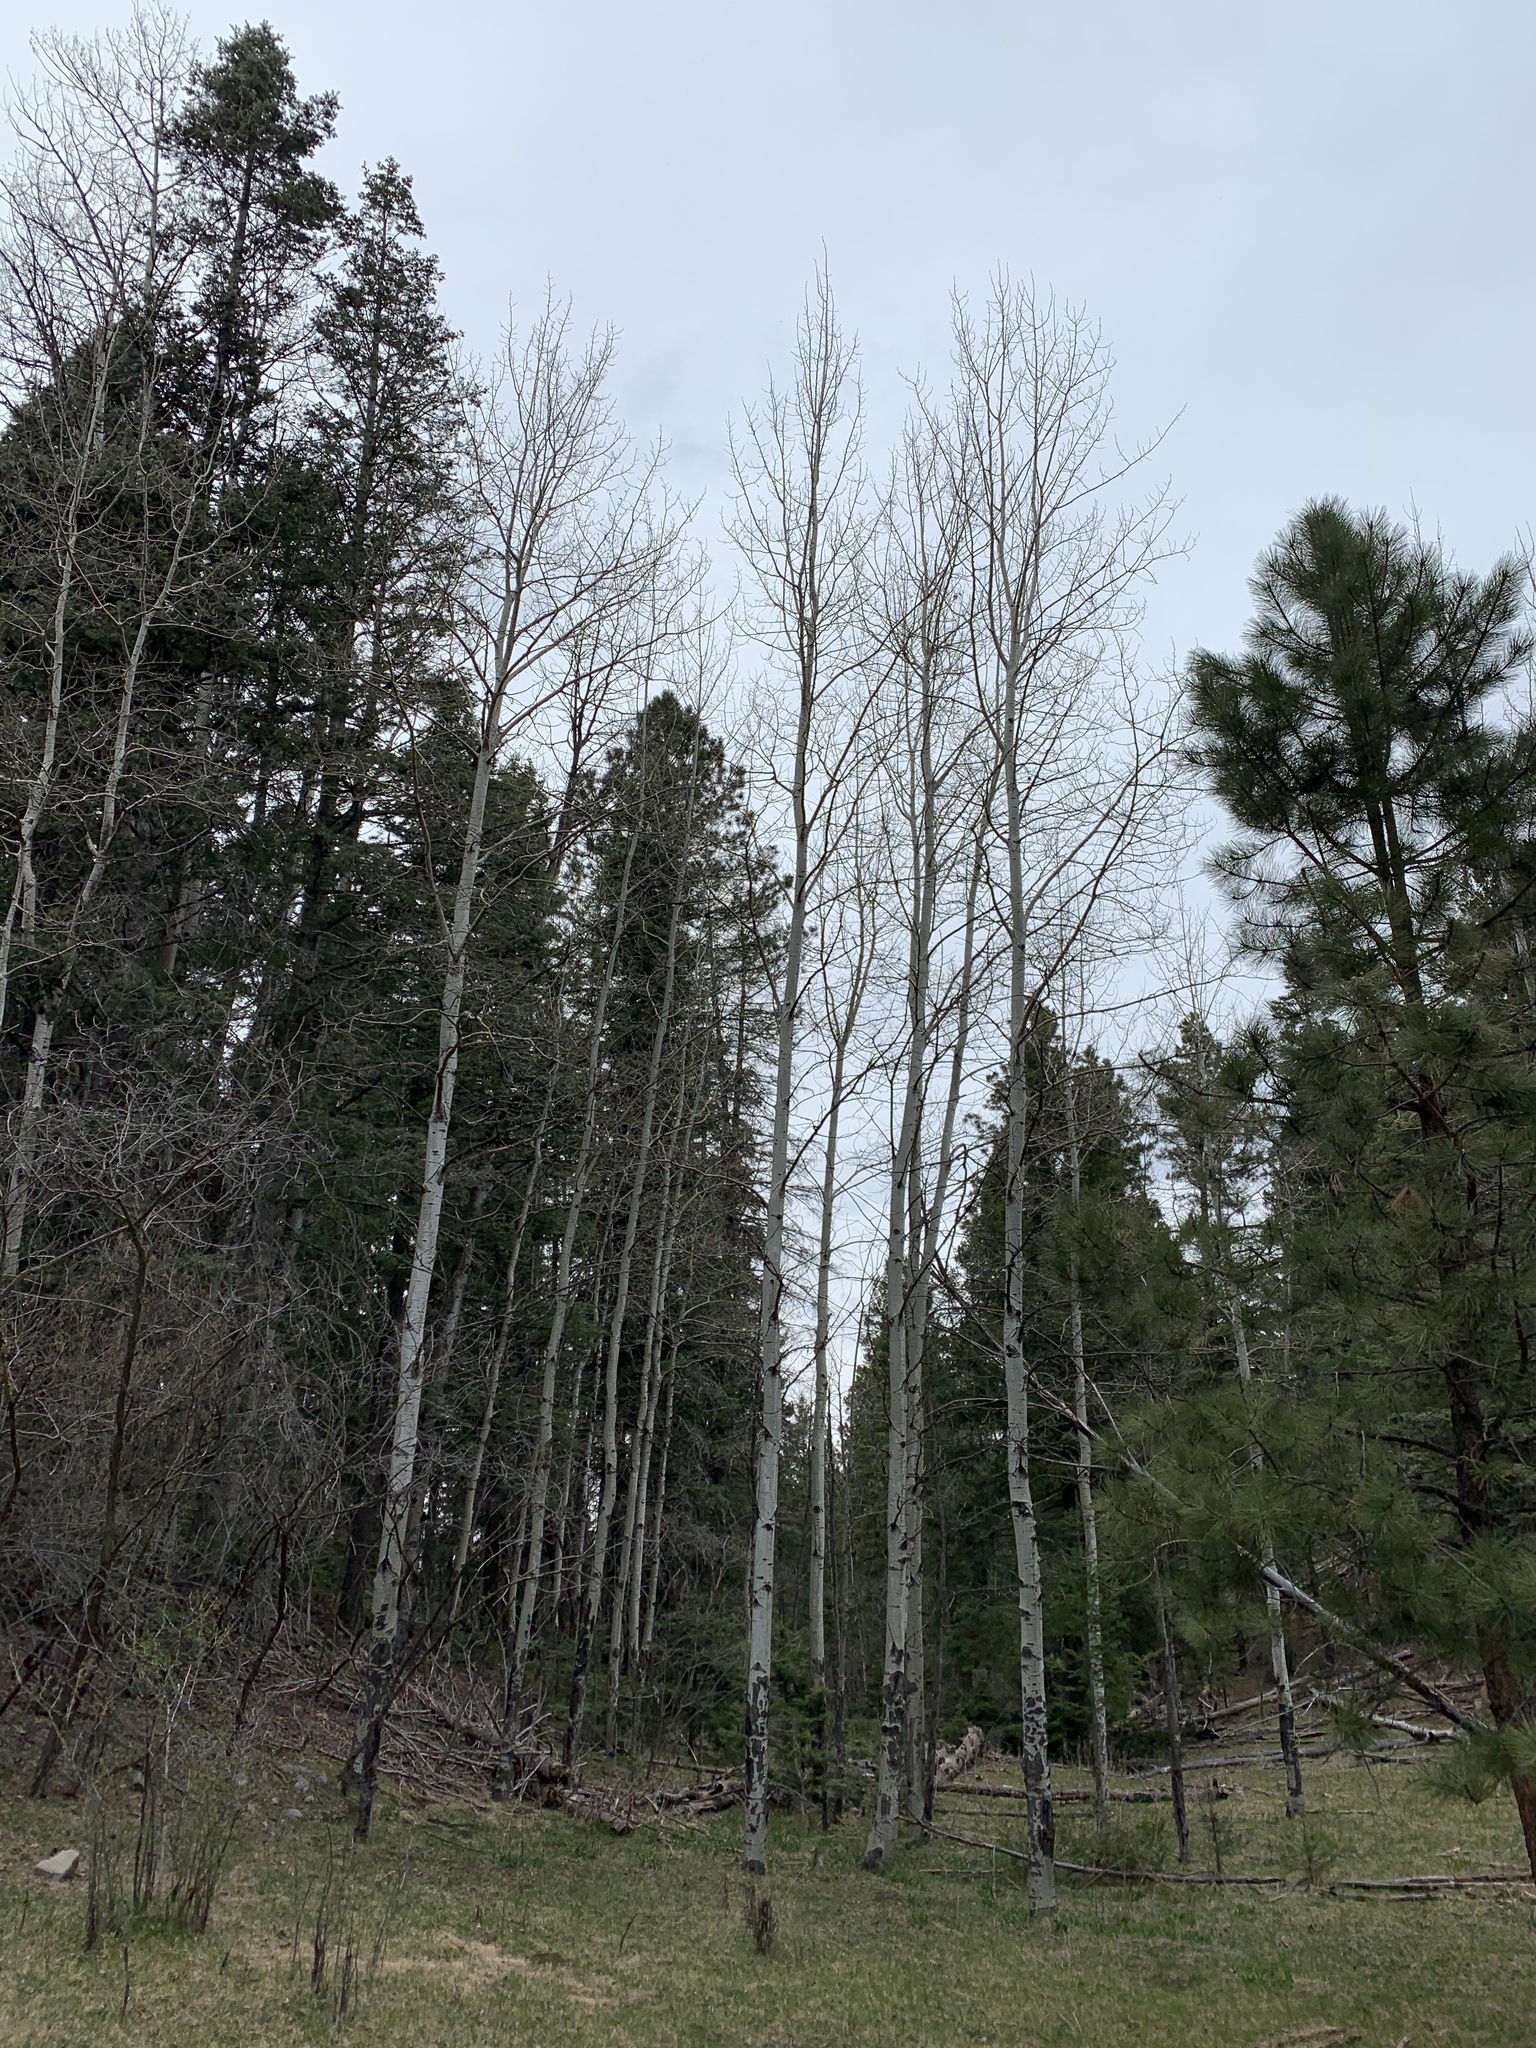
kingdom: Plantae
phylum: Tracheophyta
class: Magnoliopsida
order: Malpighiales
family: Salicaceae
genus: Populus
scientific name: Populus tremuloides
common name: Quaking aspen
